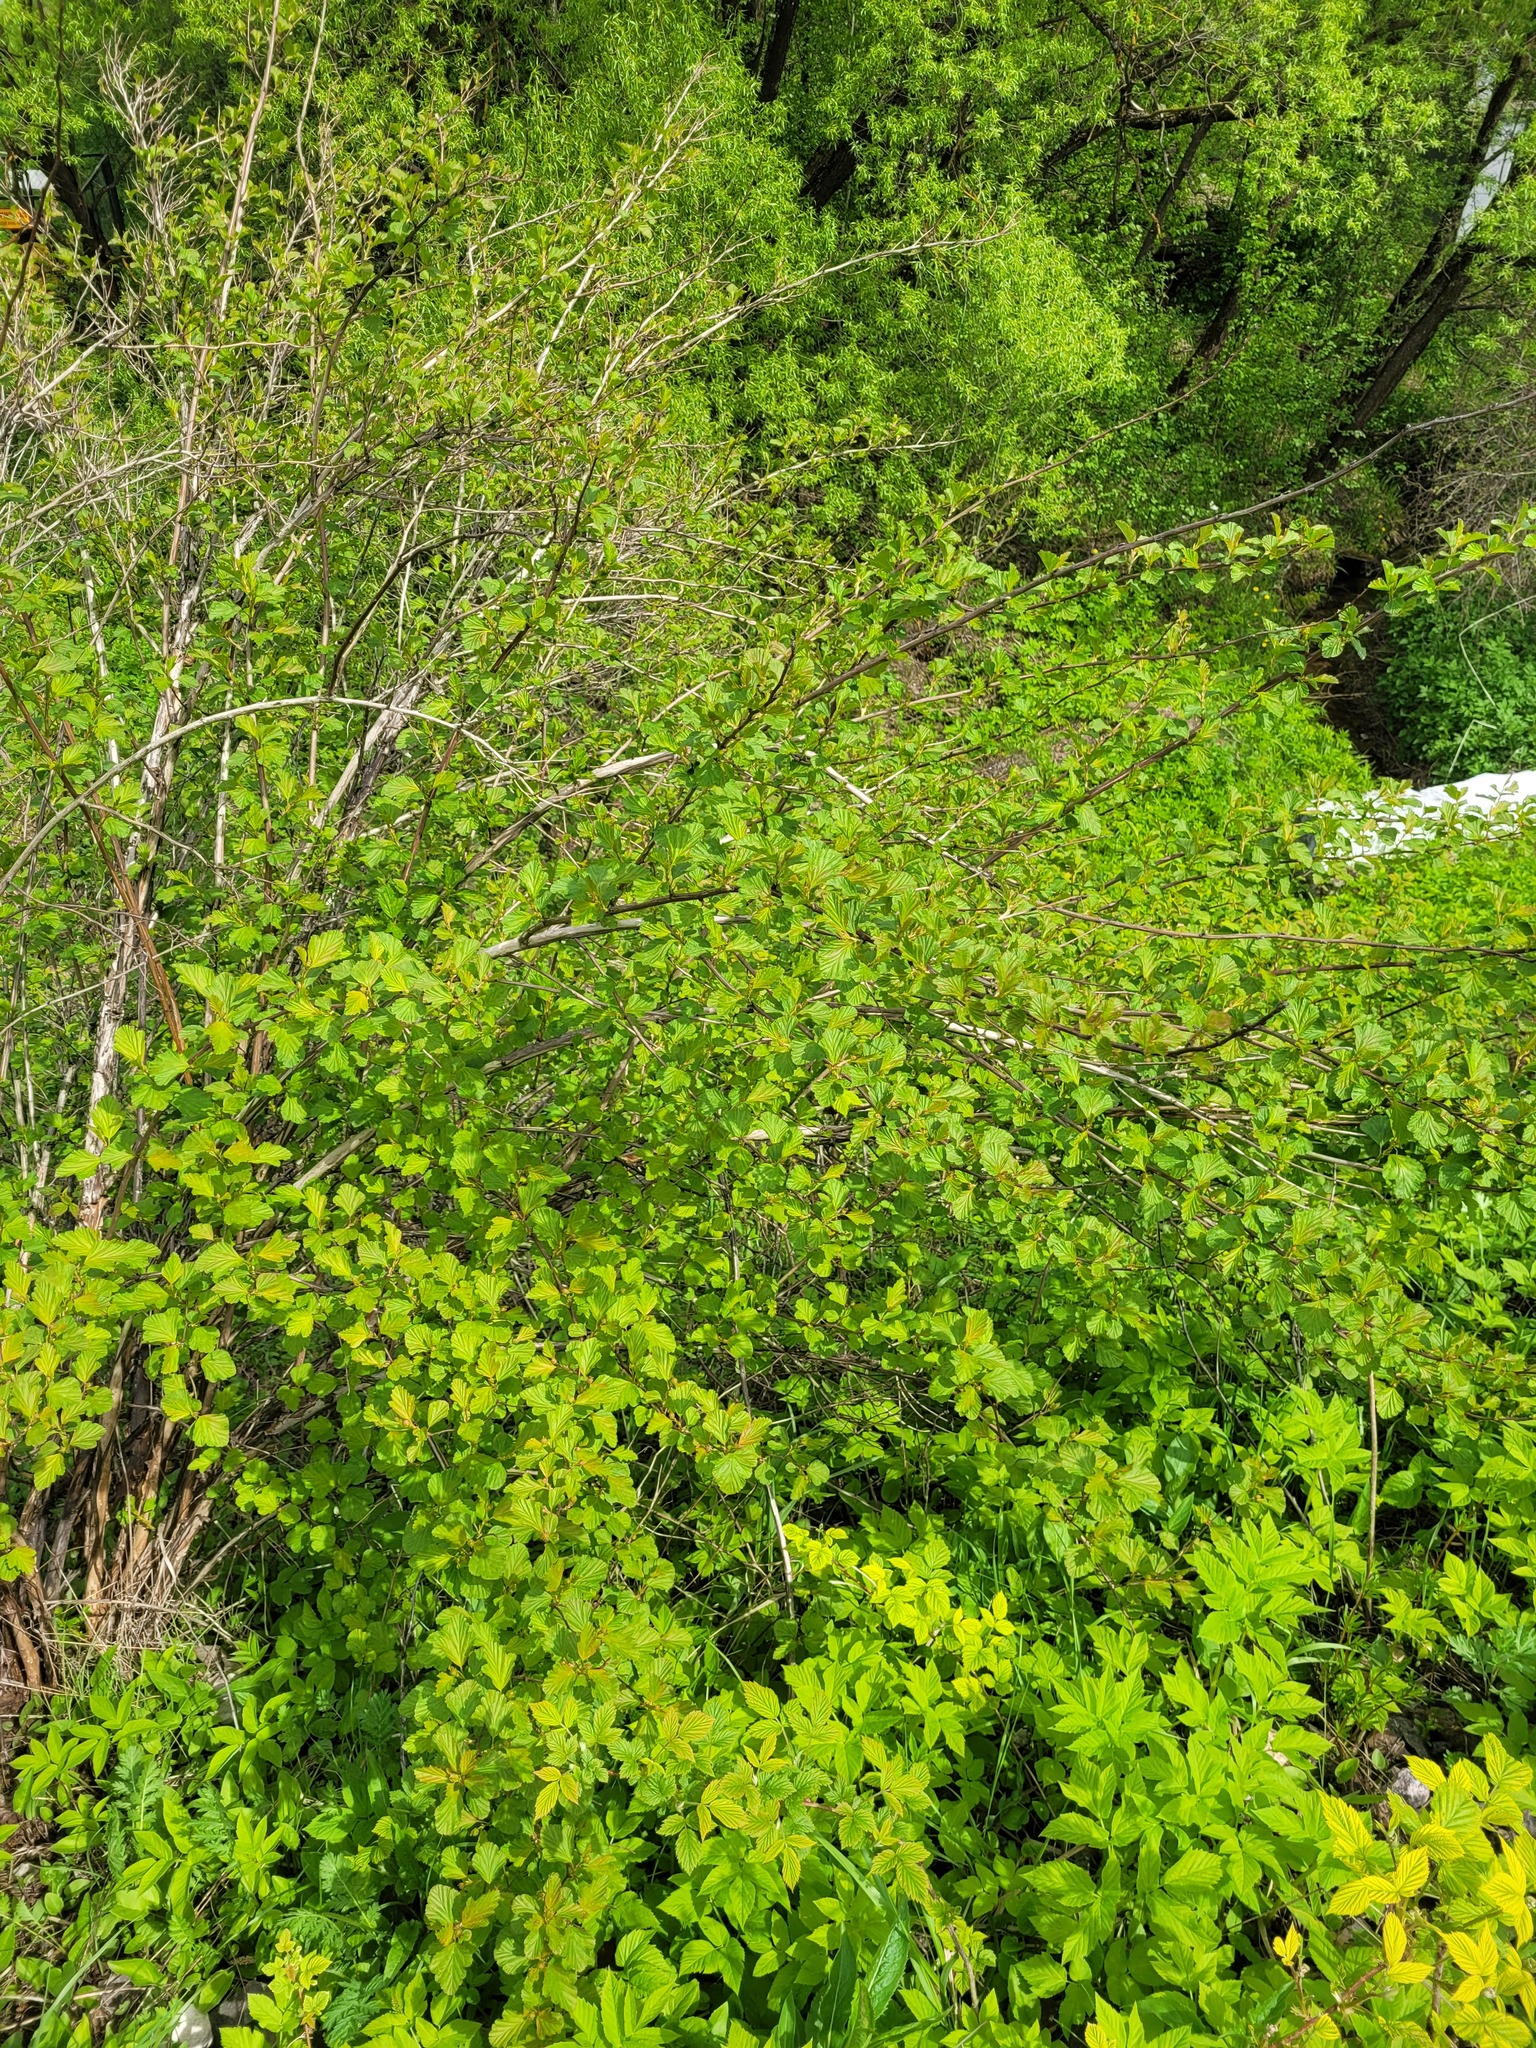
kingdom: Plantae
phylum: Tracheophyta
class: Magnoliopsida
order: Rosales
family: Rosaceae
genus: Physocarpus
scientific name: Physocarpus opulifolius
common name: Ninebark
